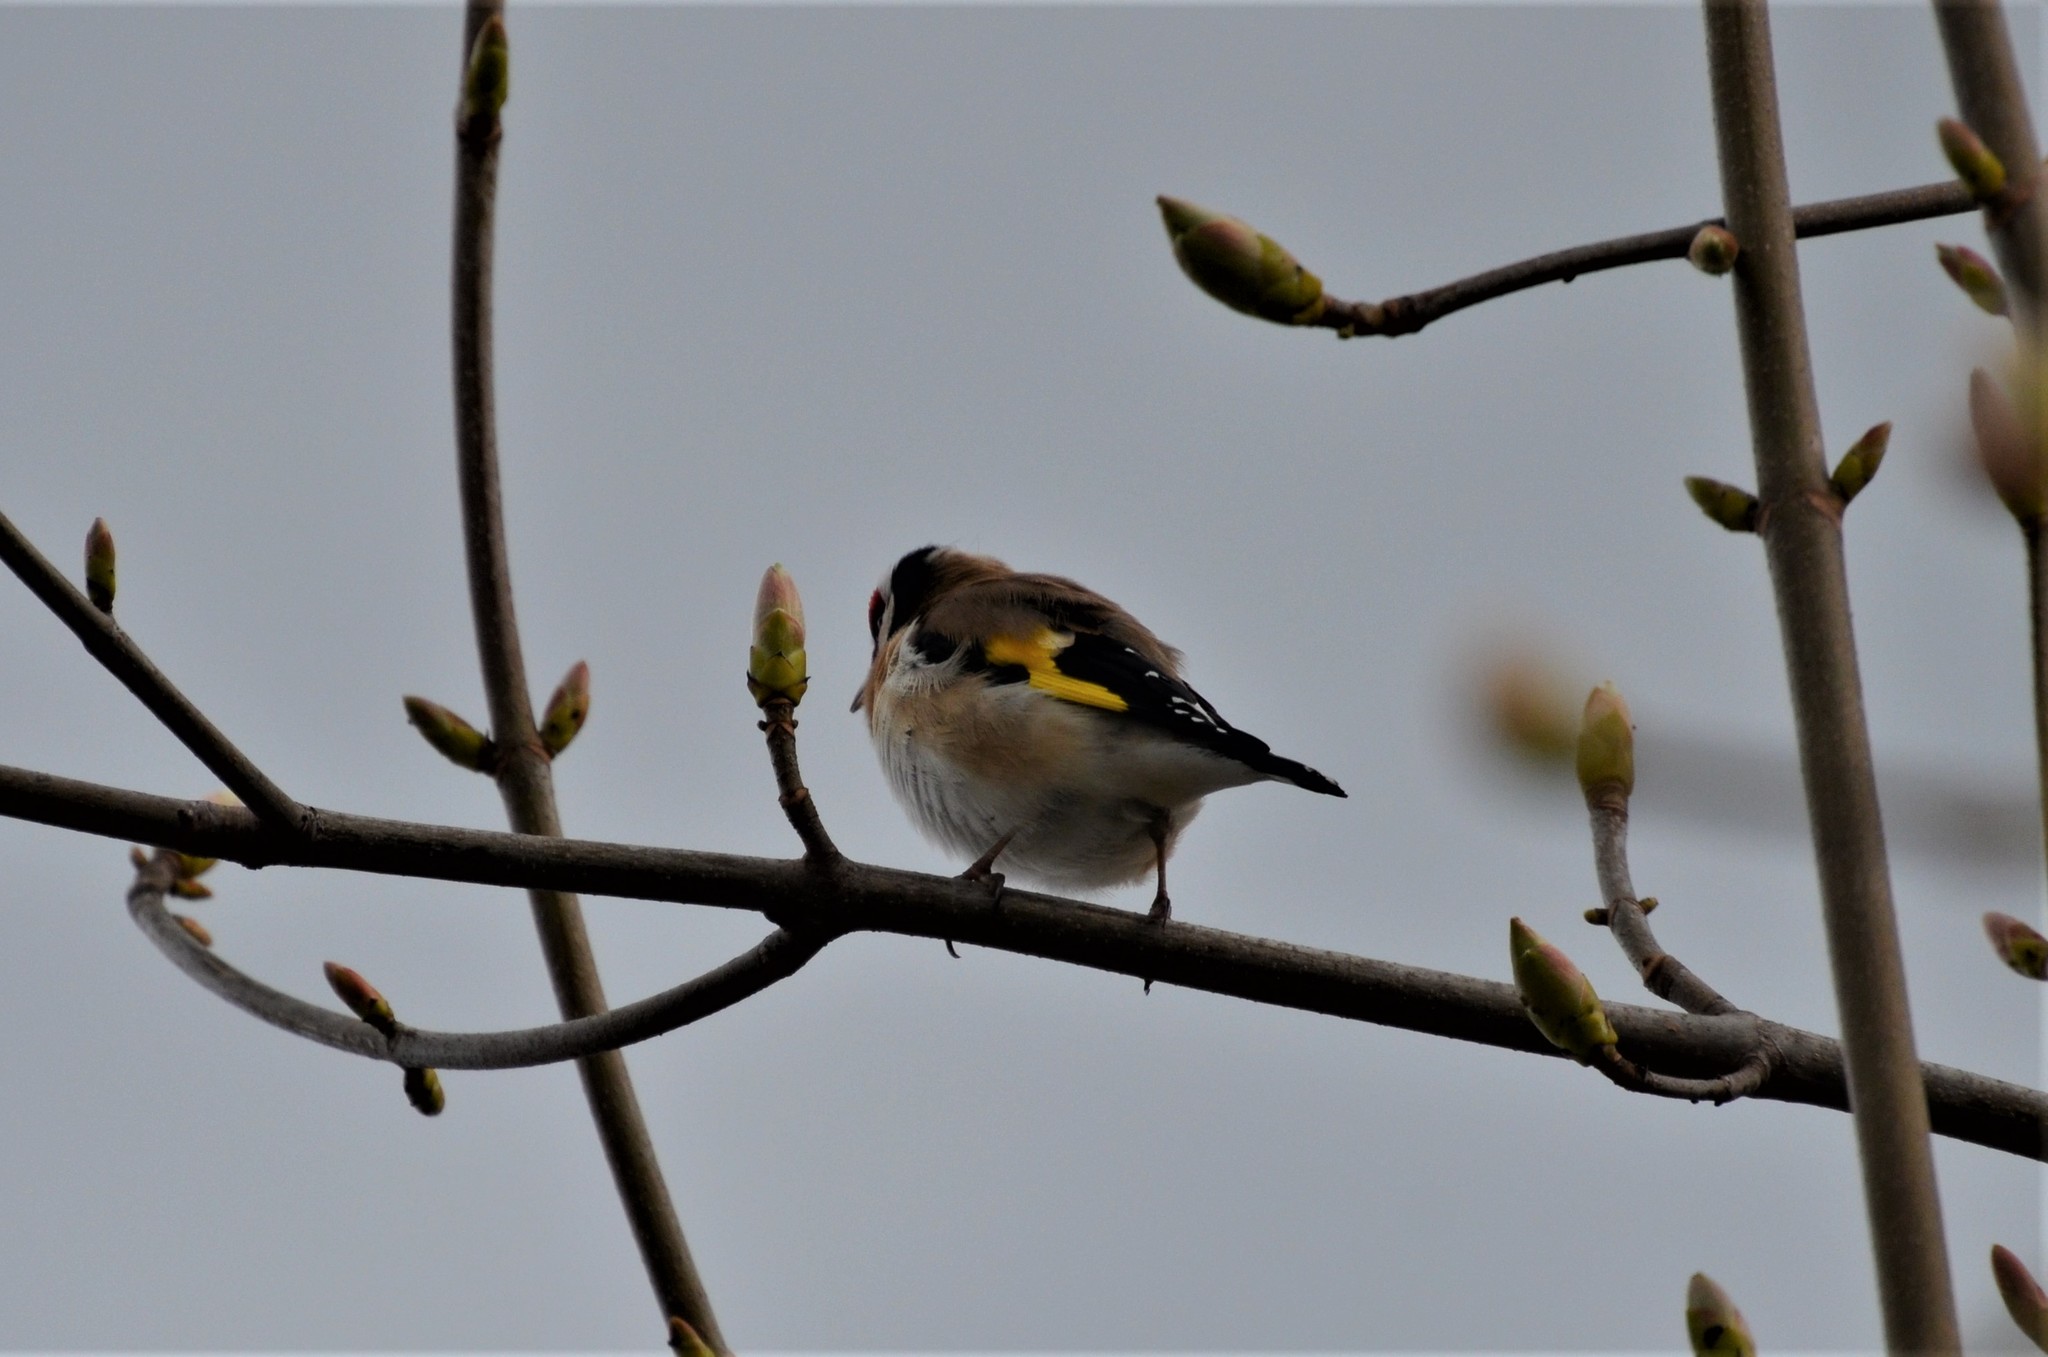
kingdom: Animalia
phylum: Chordata
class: Aves
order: Passeriformes
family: Fringillidae
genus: Carduelis
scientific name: Carduelis carduelis
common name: European goldfinch
